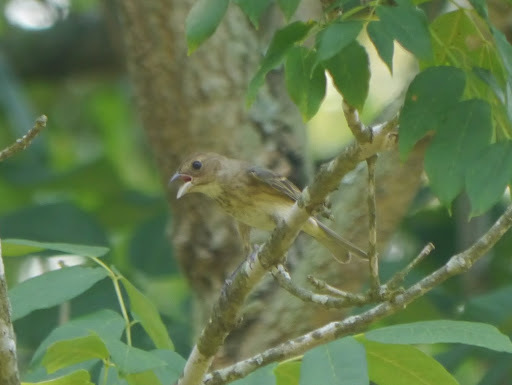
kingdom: Animalia
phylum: Chordata
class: Aves
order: Passeriformes
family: Cardinalidae
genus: Passerina
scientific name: Passerina cyanea
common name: Indigo bunting
